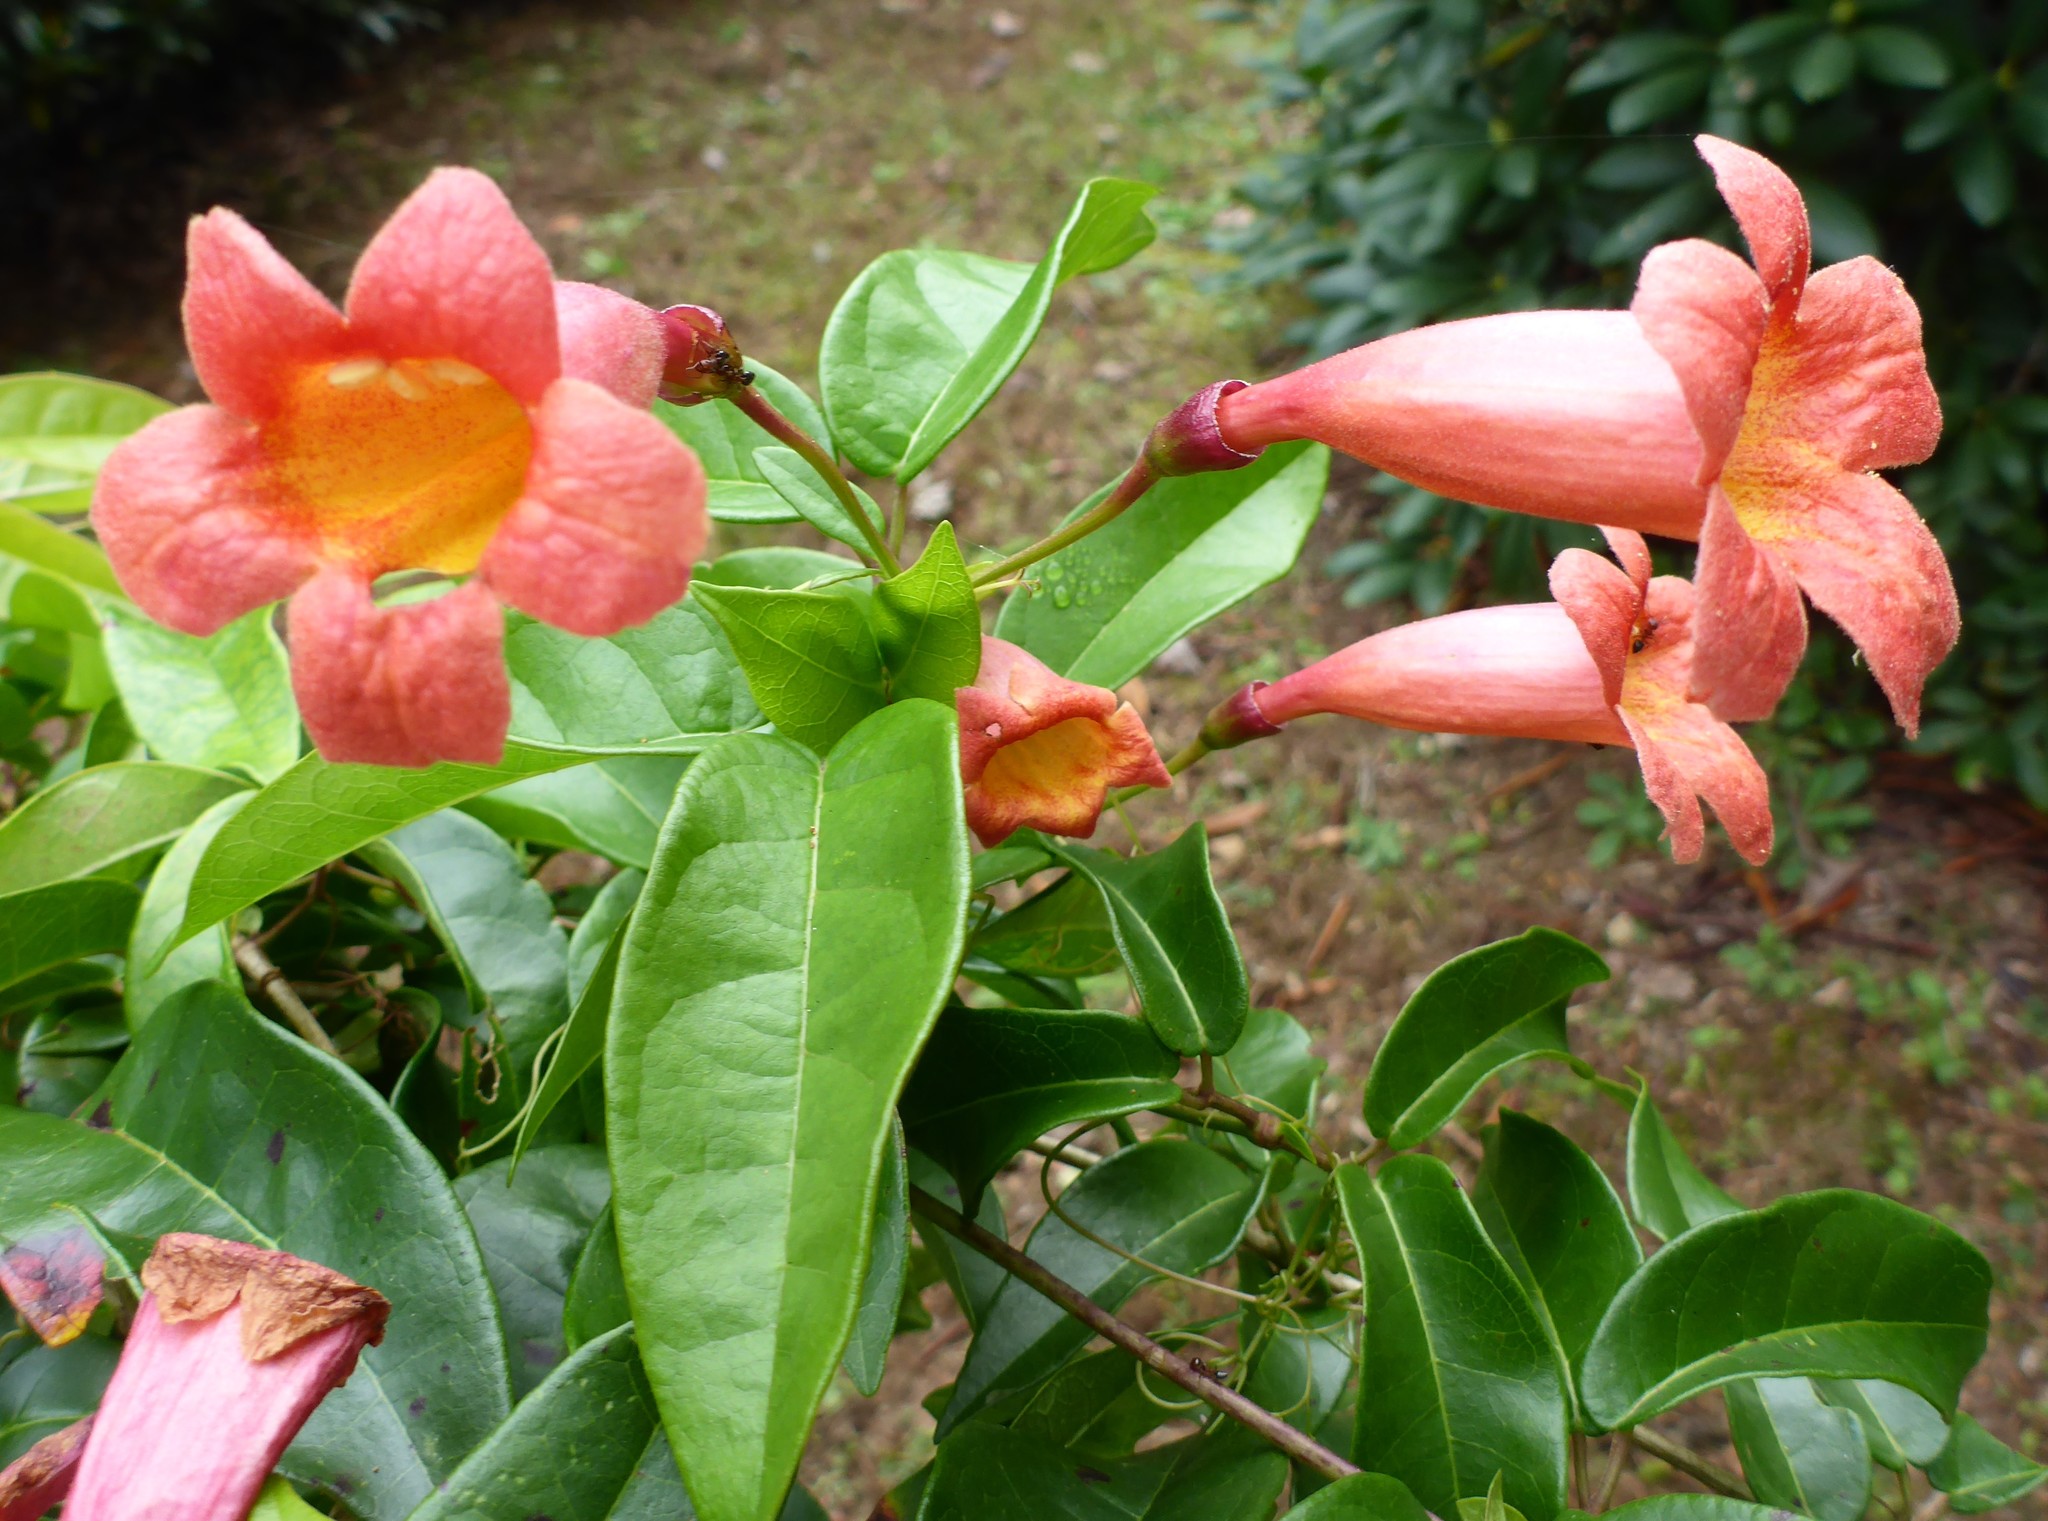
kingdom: Plantae
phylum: Tracheophyta
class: Magnoliopsida
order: Lamiales
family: Bignoniaceae
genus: Bignonia
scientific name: Bignonia capreolata
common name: Crossvine
